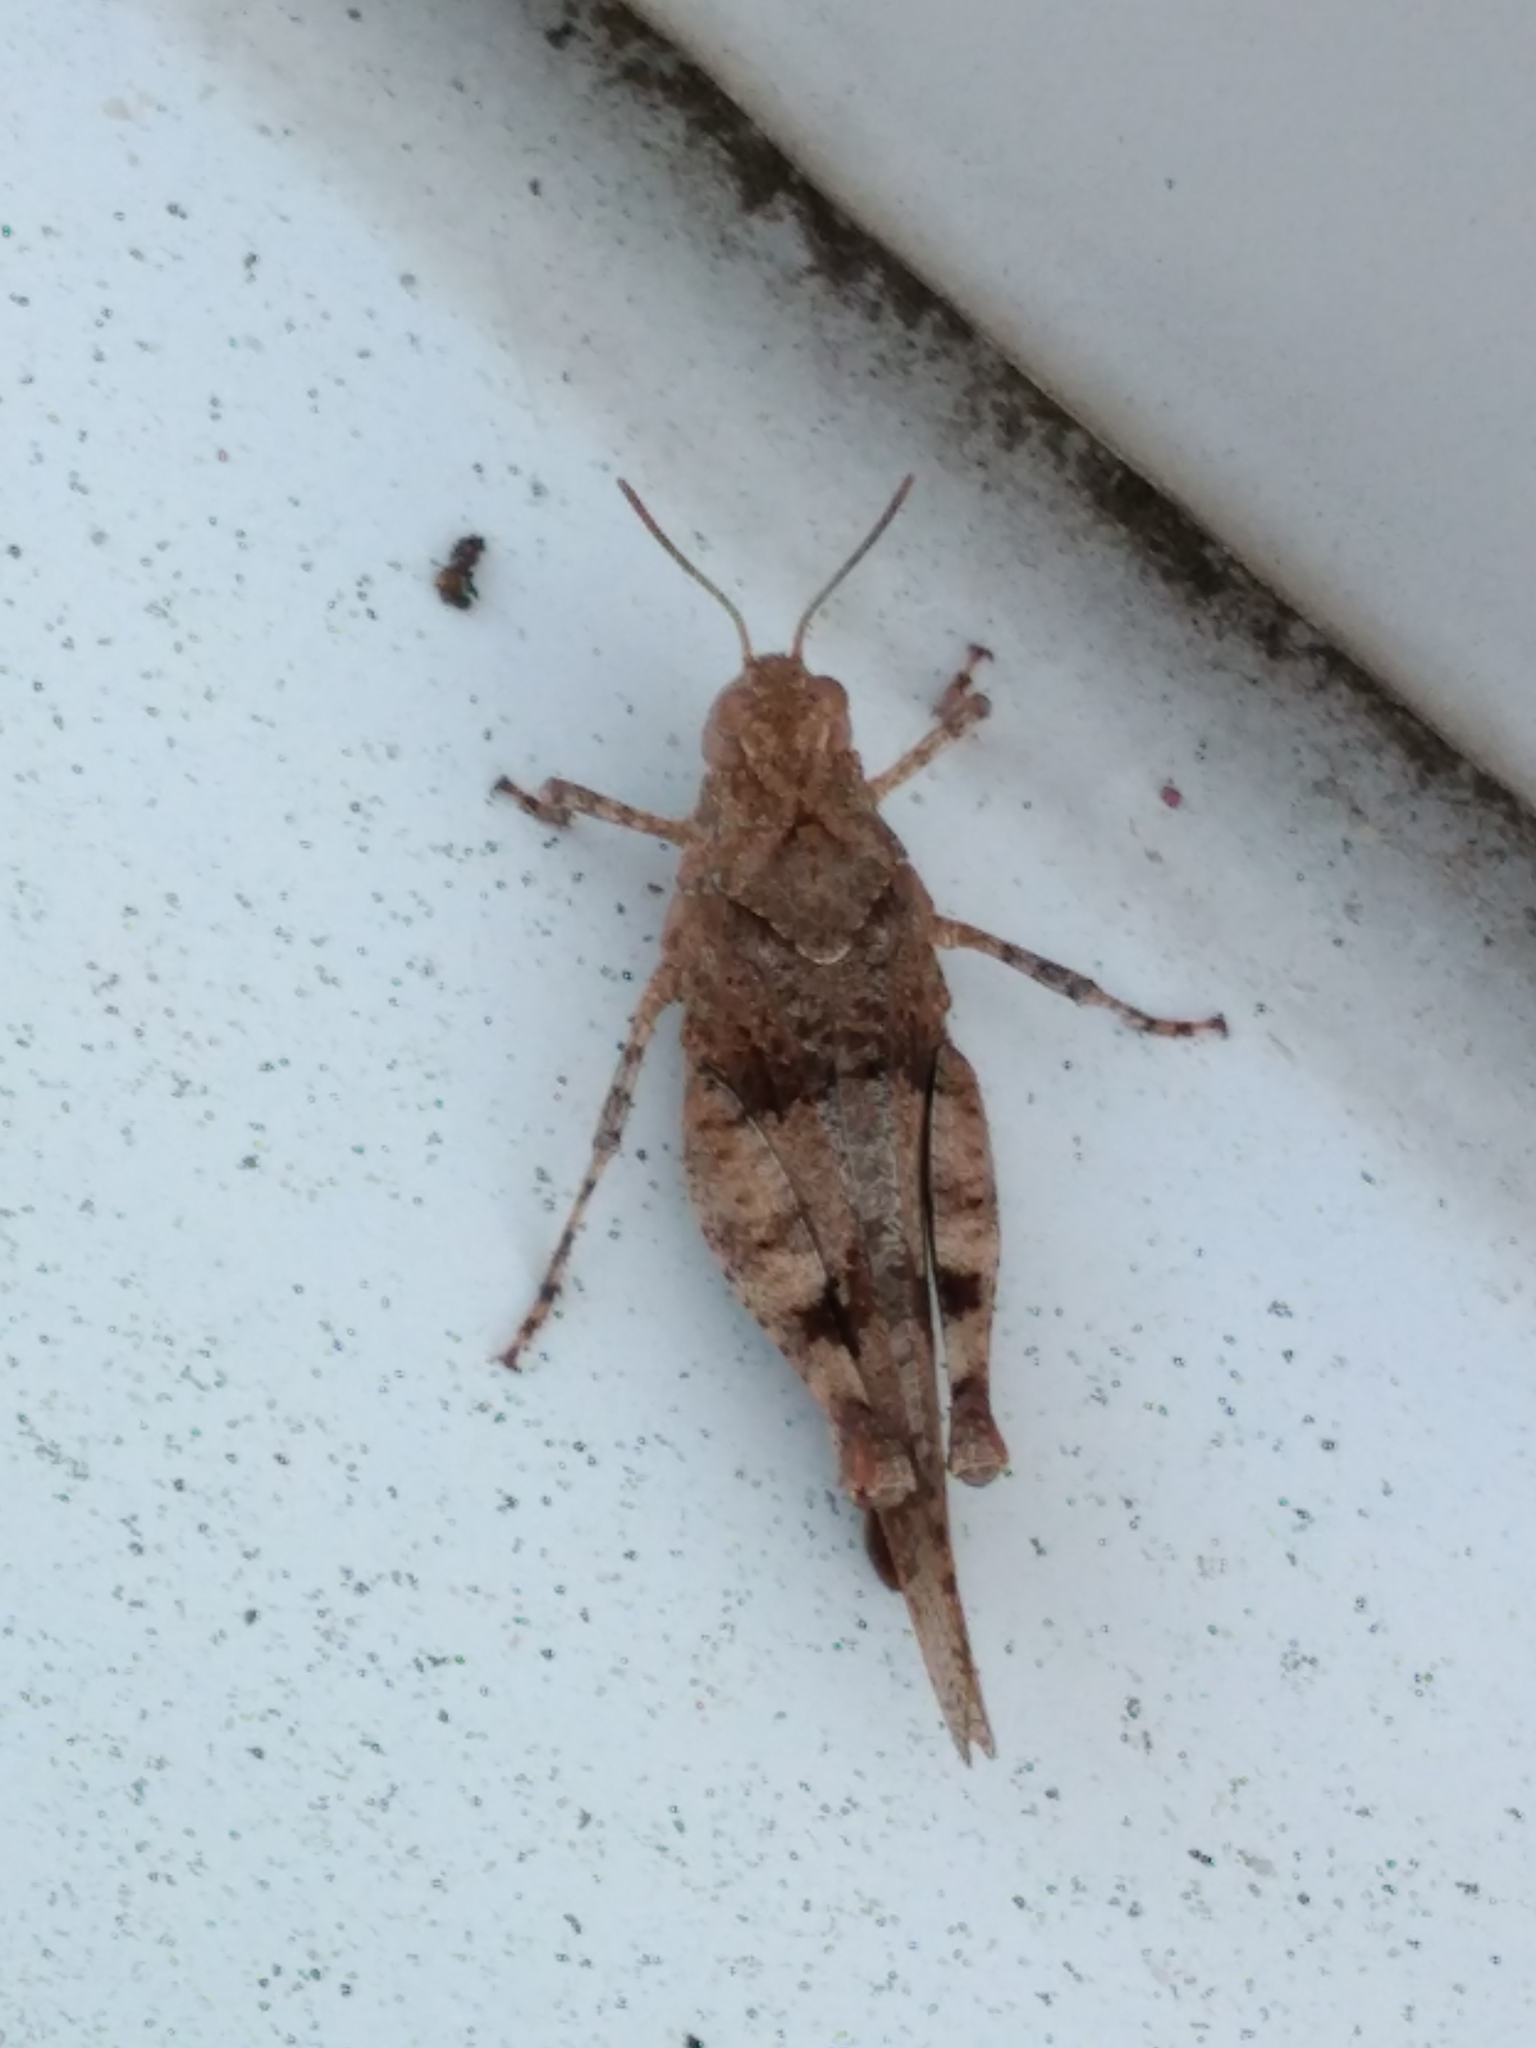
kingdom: Animalia
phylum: Arthropoda
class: Insecta
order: Orthoptera
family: Acrididae
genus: Oedipoda
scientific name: Oedipoda caerulescens
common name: Blue-winged grasshopper
